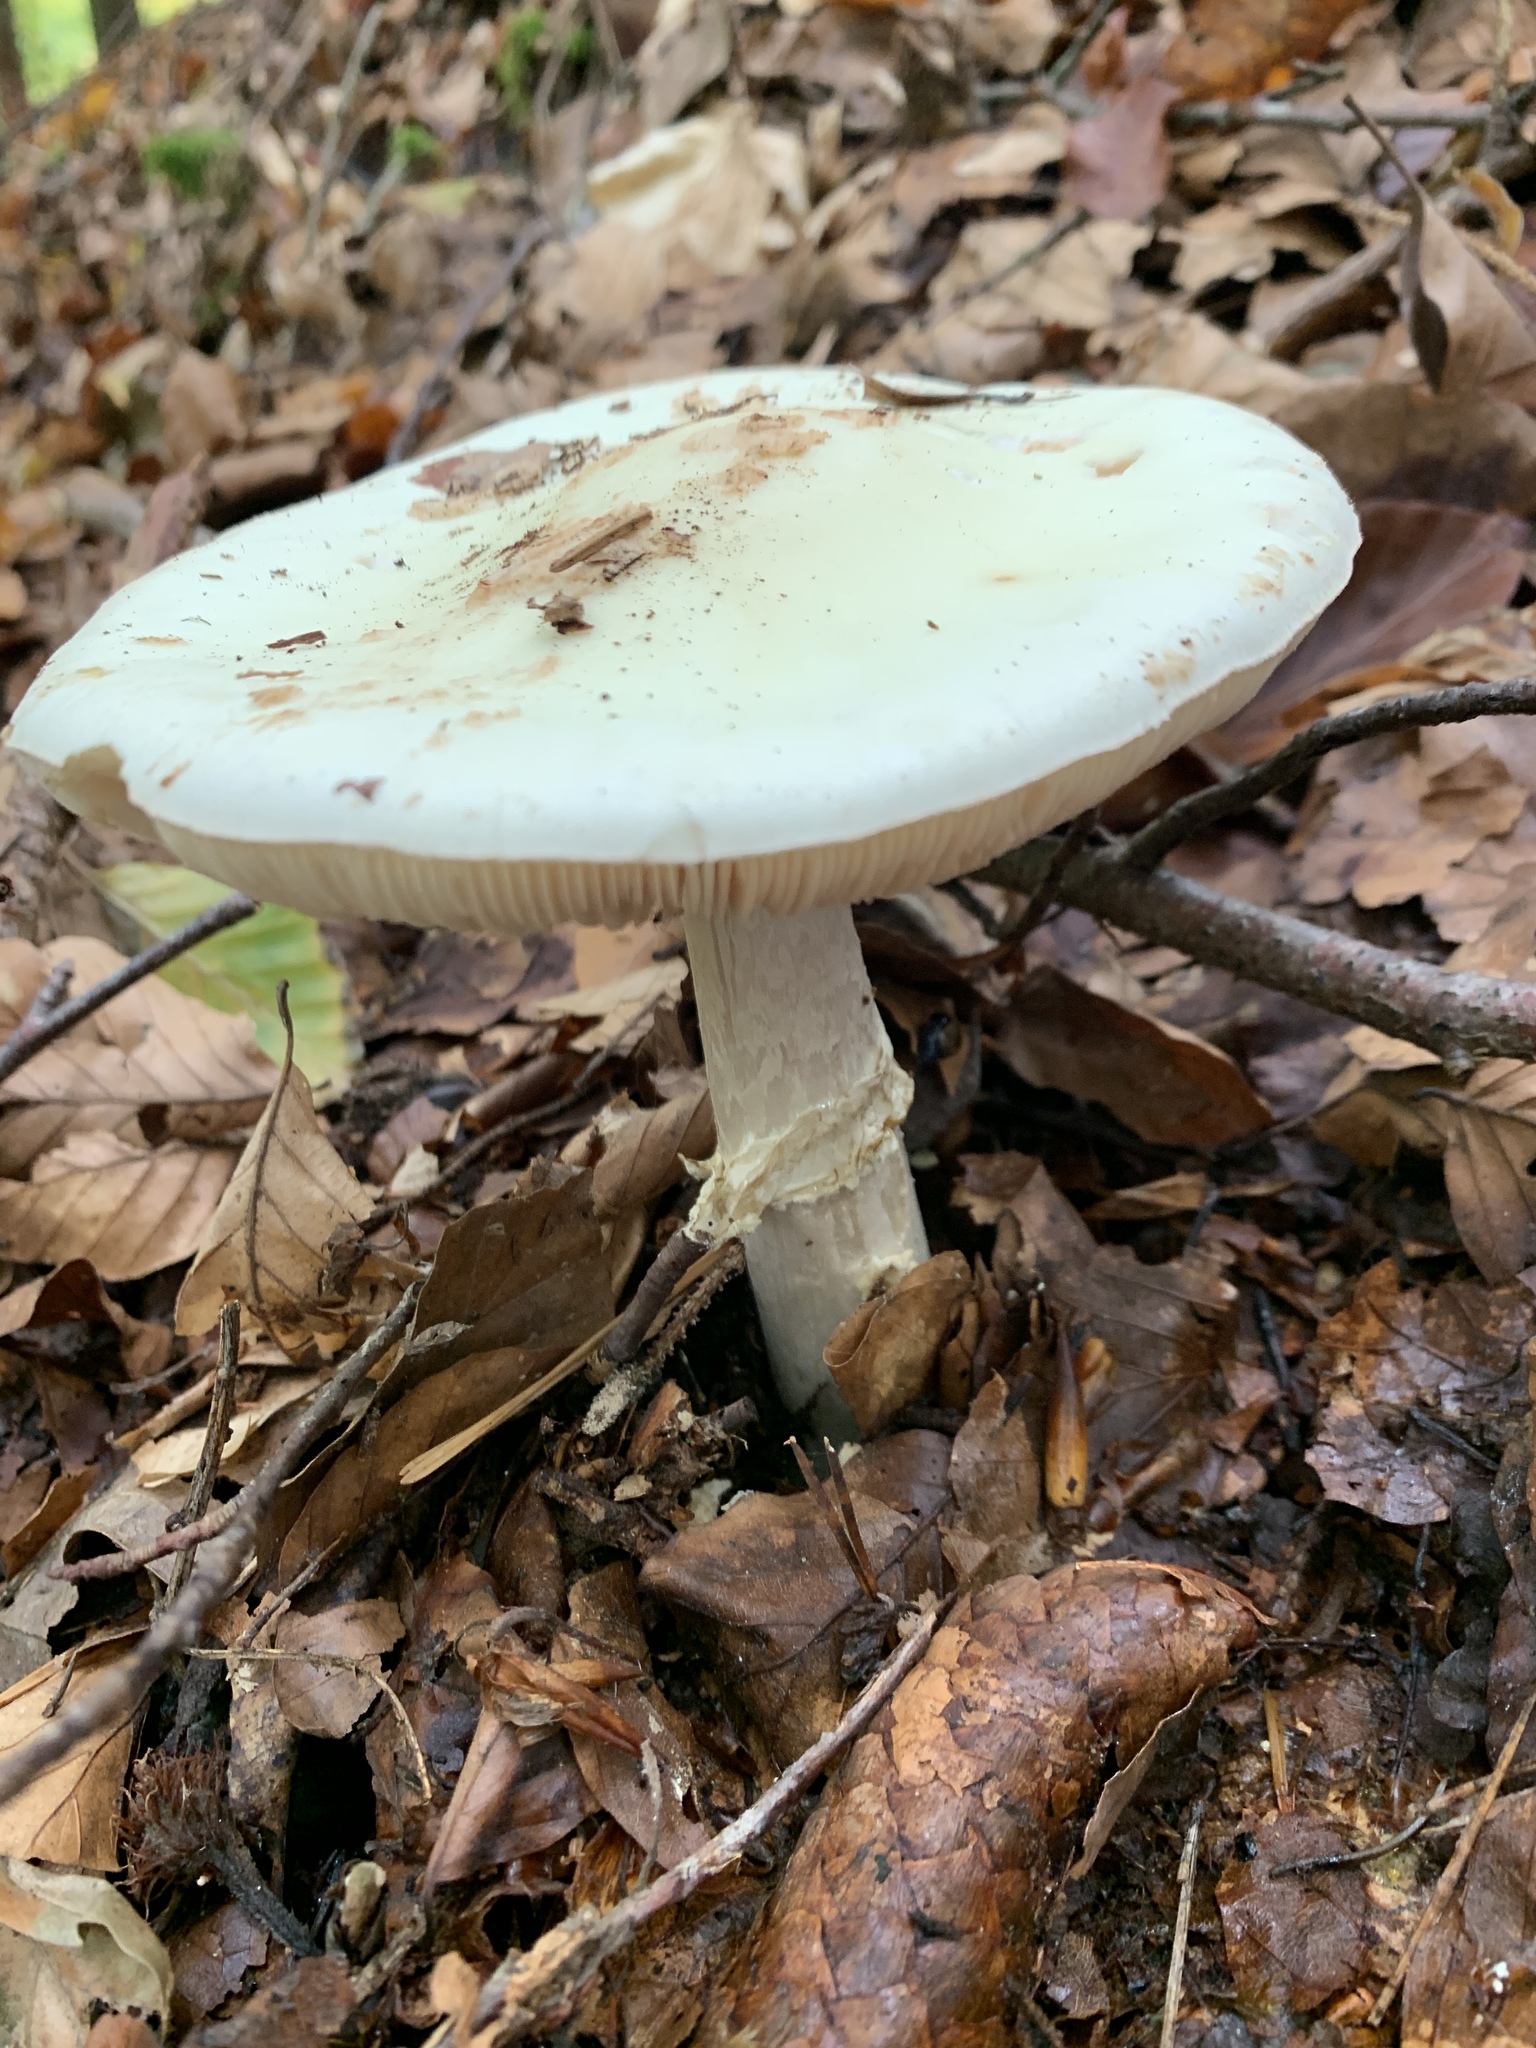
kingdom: Fungi
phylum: Basidiomycota
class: Agaricomycetes
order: Agaricales
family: Amanitaceae
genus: Amanita
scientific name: Amanita citrina
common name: False death-cap
